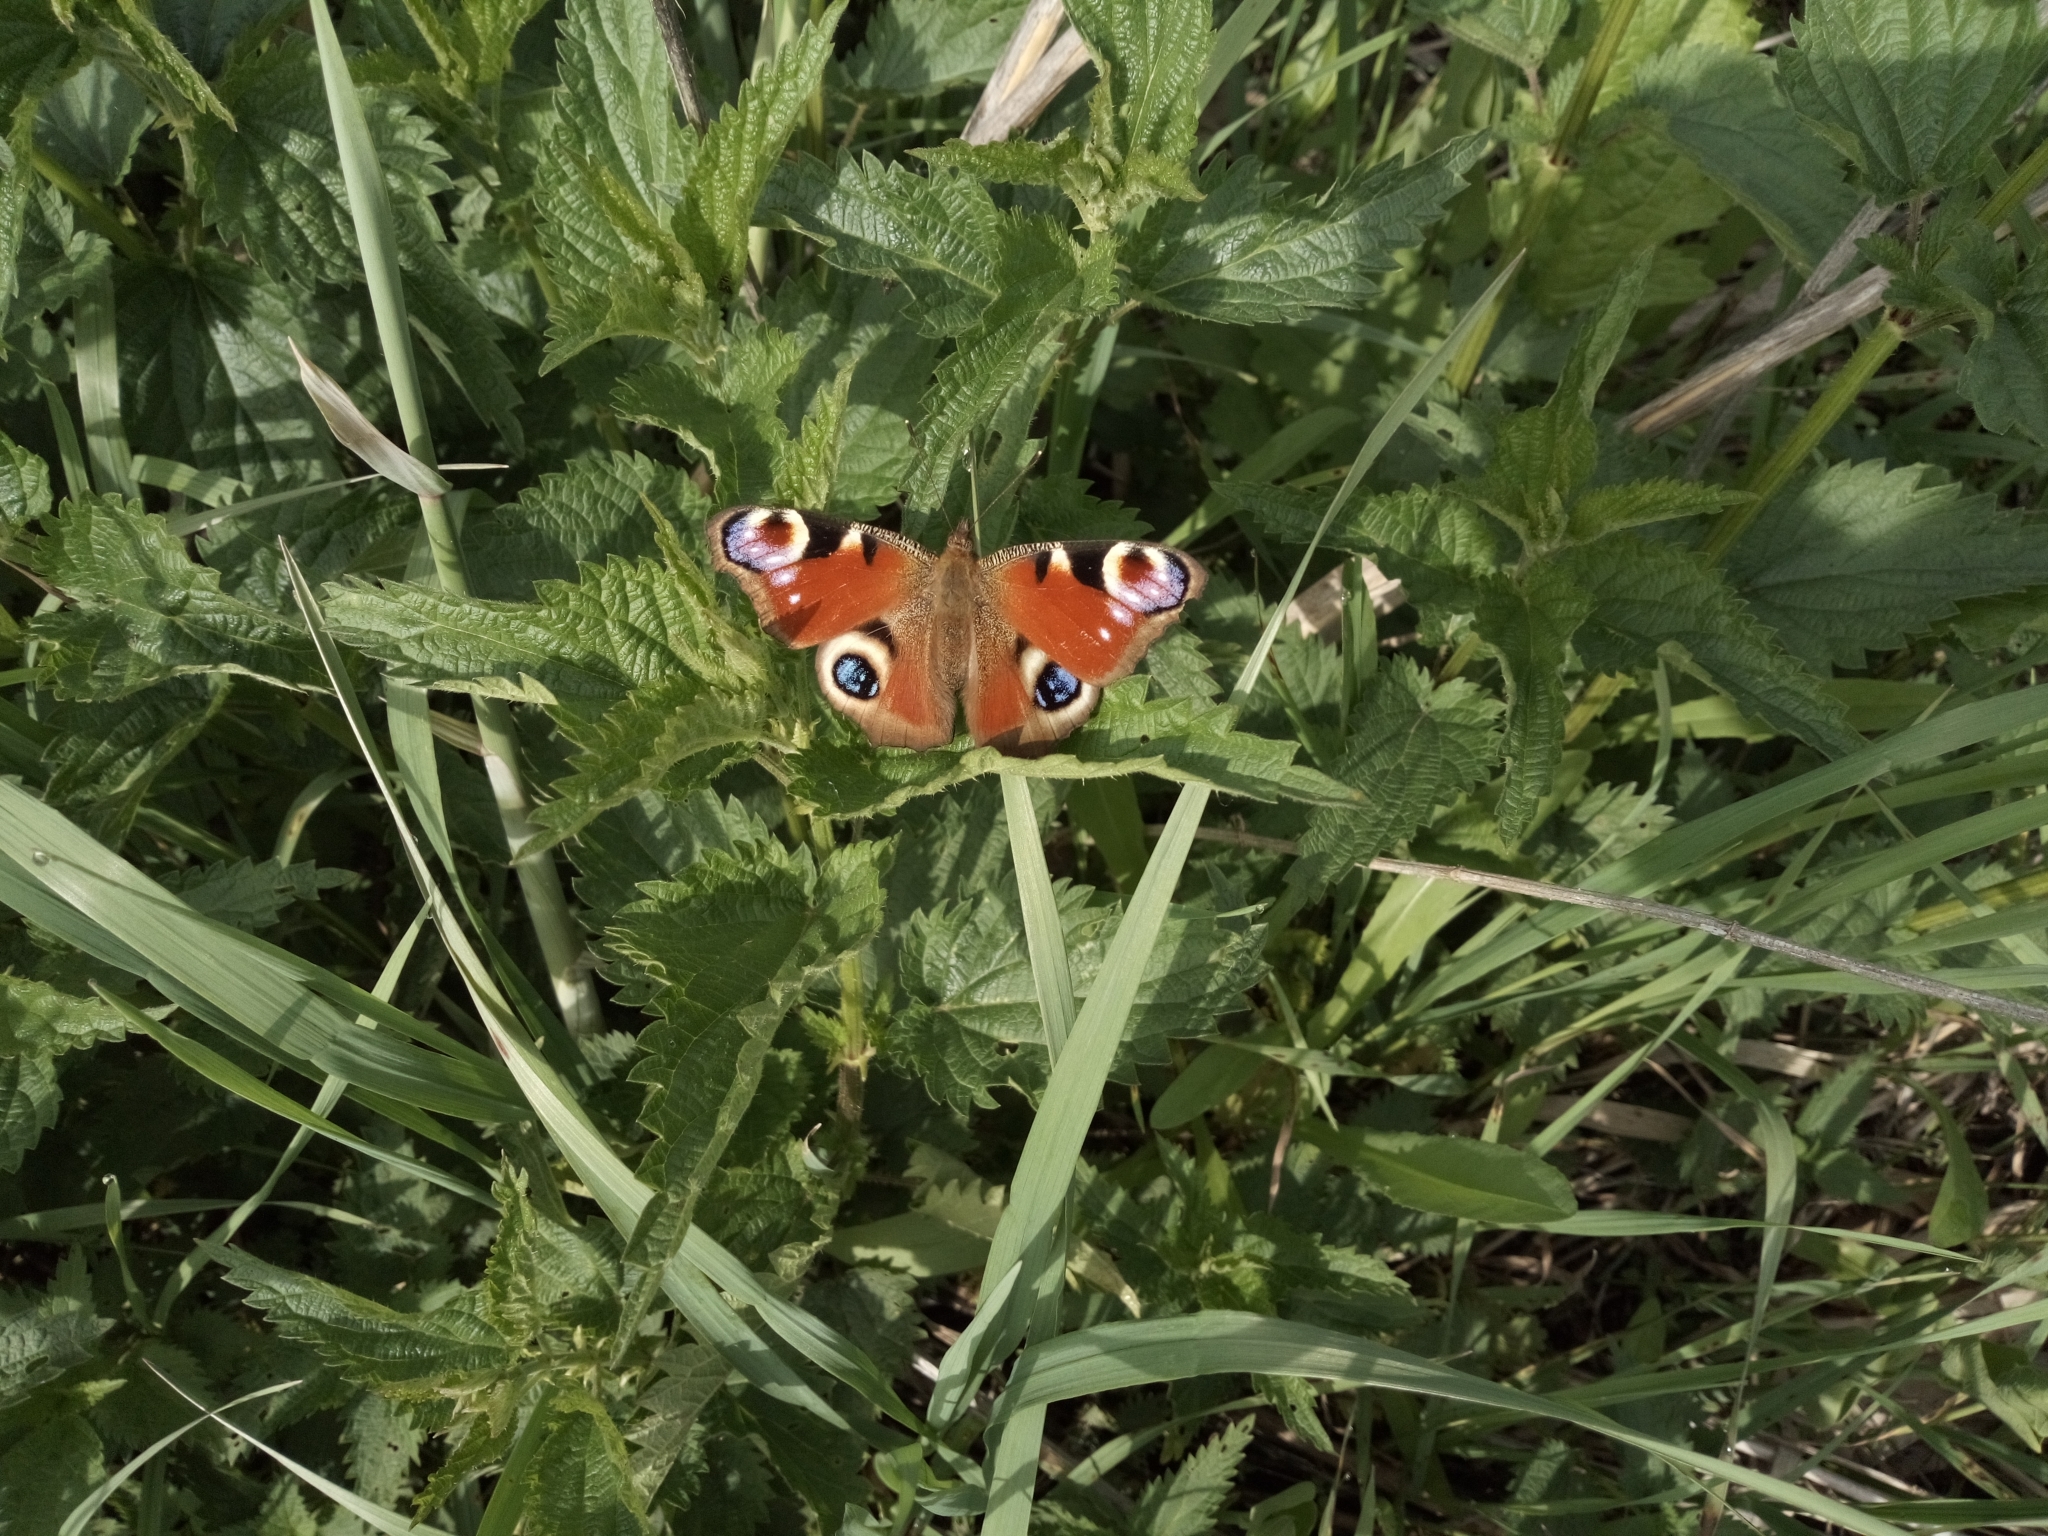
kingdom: Animalia
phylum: Arthropoda
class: Insecta
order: Lepidoptera
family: Nymphalidae
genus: Aglais
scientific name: Aglais io
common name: Peacock
